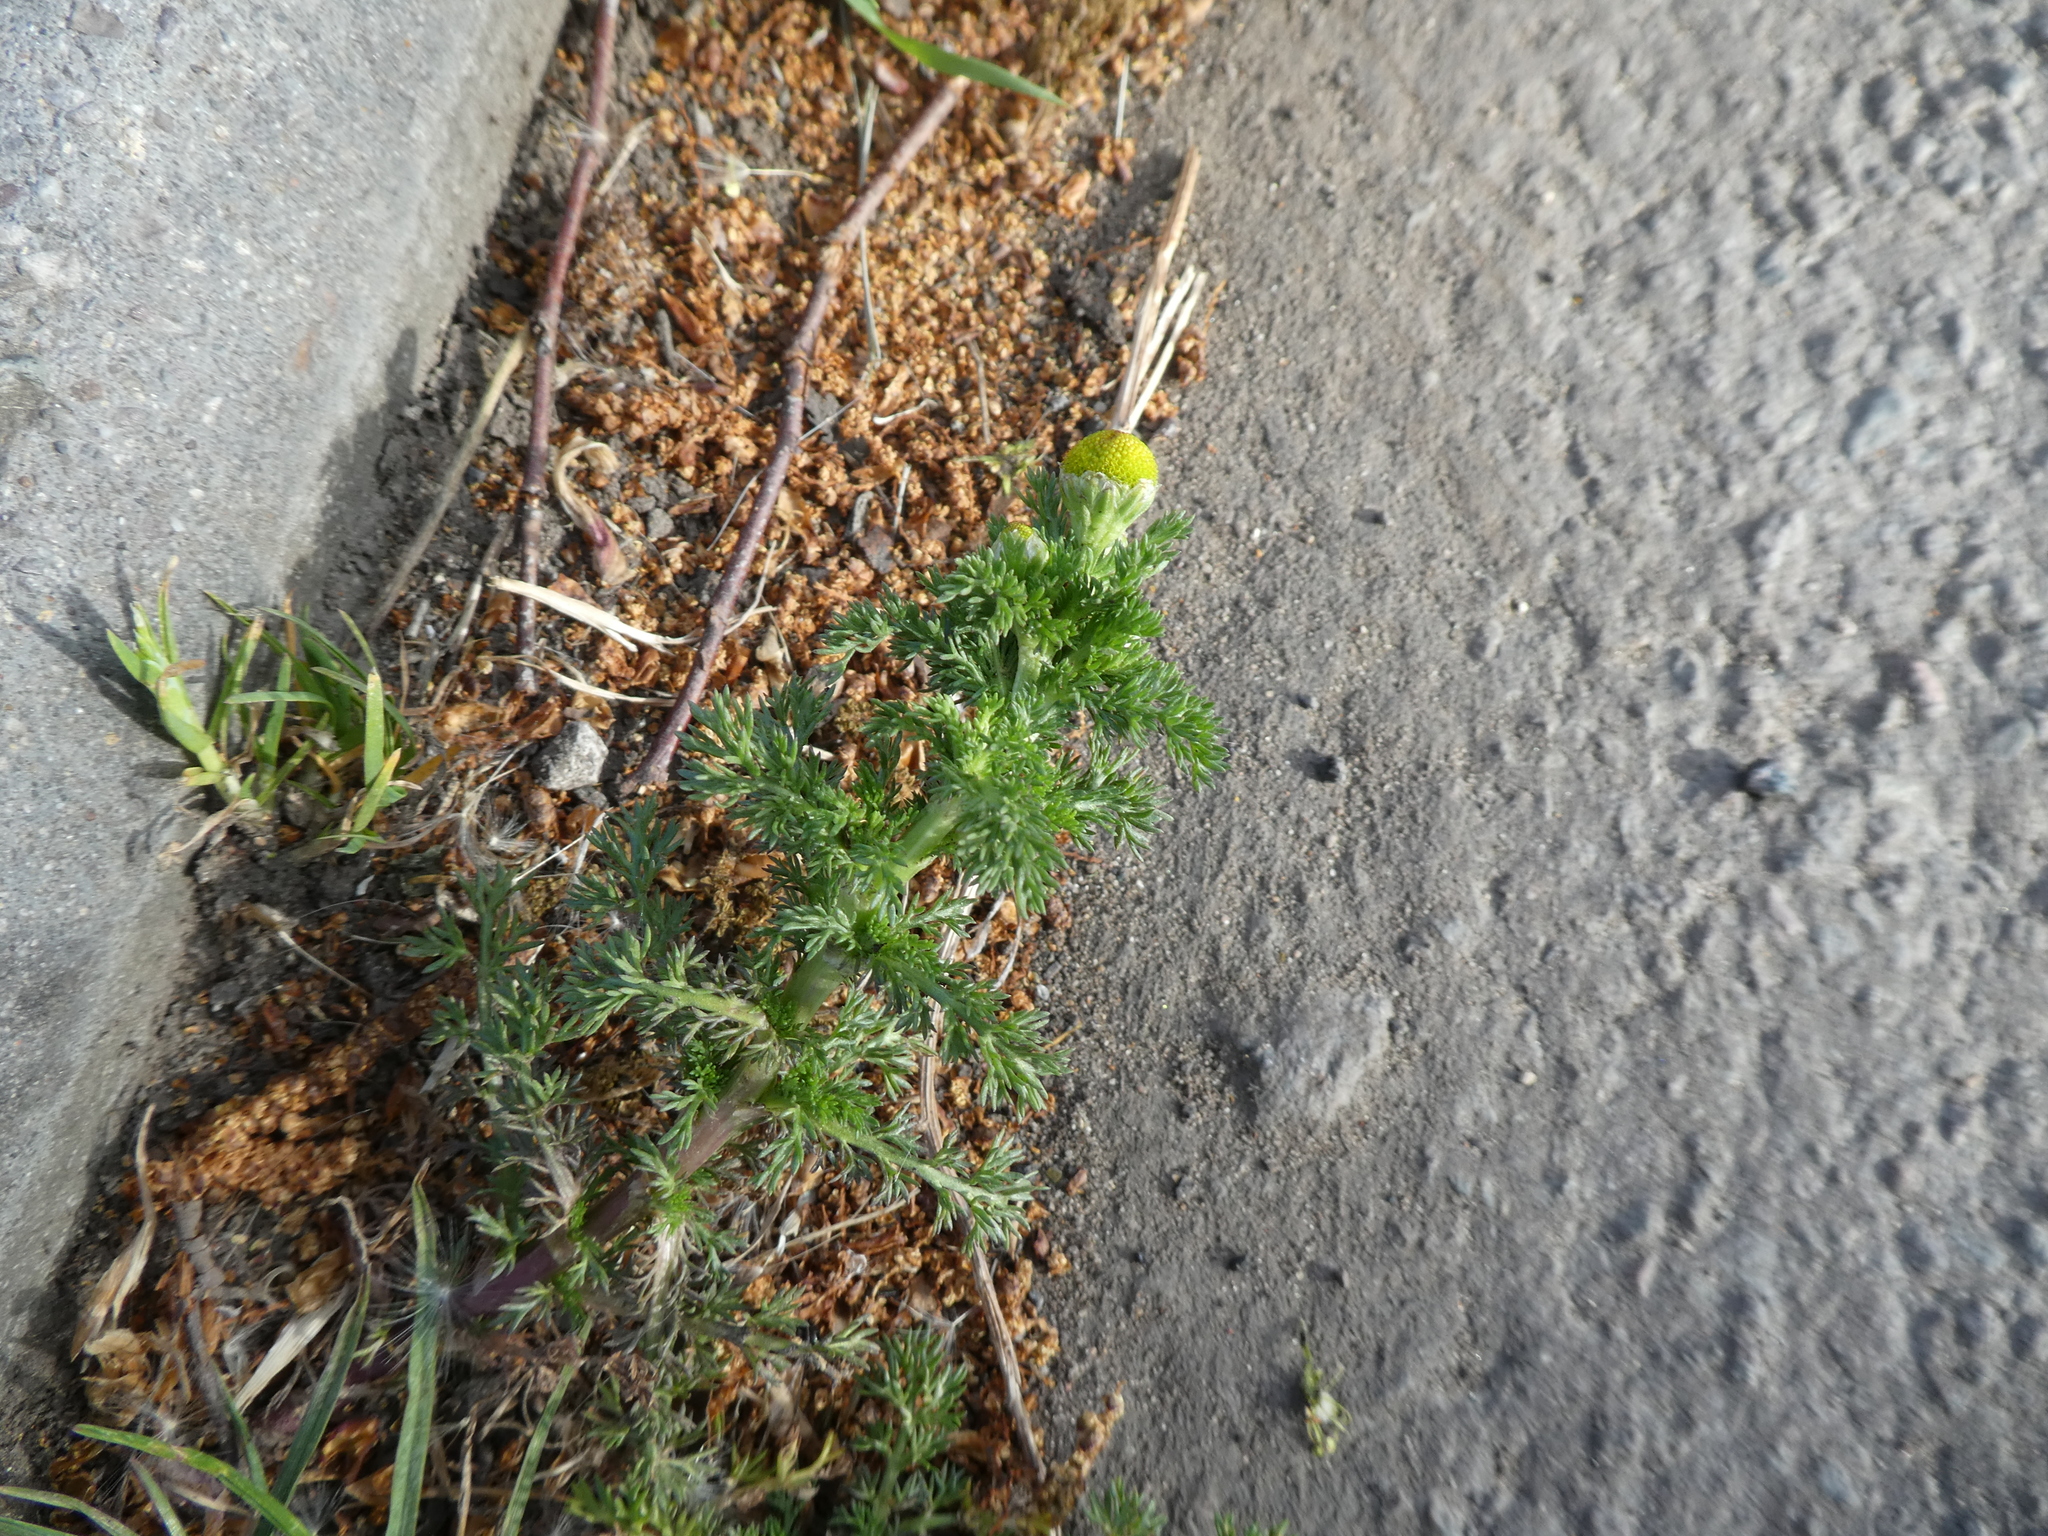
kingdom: Plantae
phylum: Tracheophyta
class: Magnoliopsida
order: Asterales
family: Asteraceae
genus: Matricaria
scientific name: Matricaria discoidea
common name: Disc mayweed
